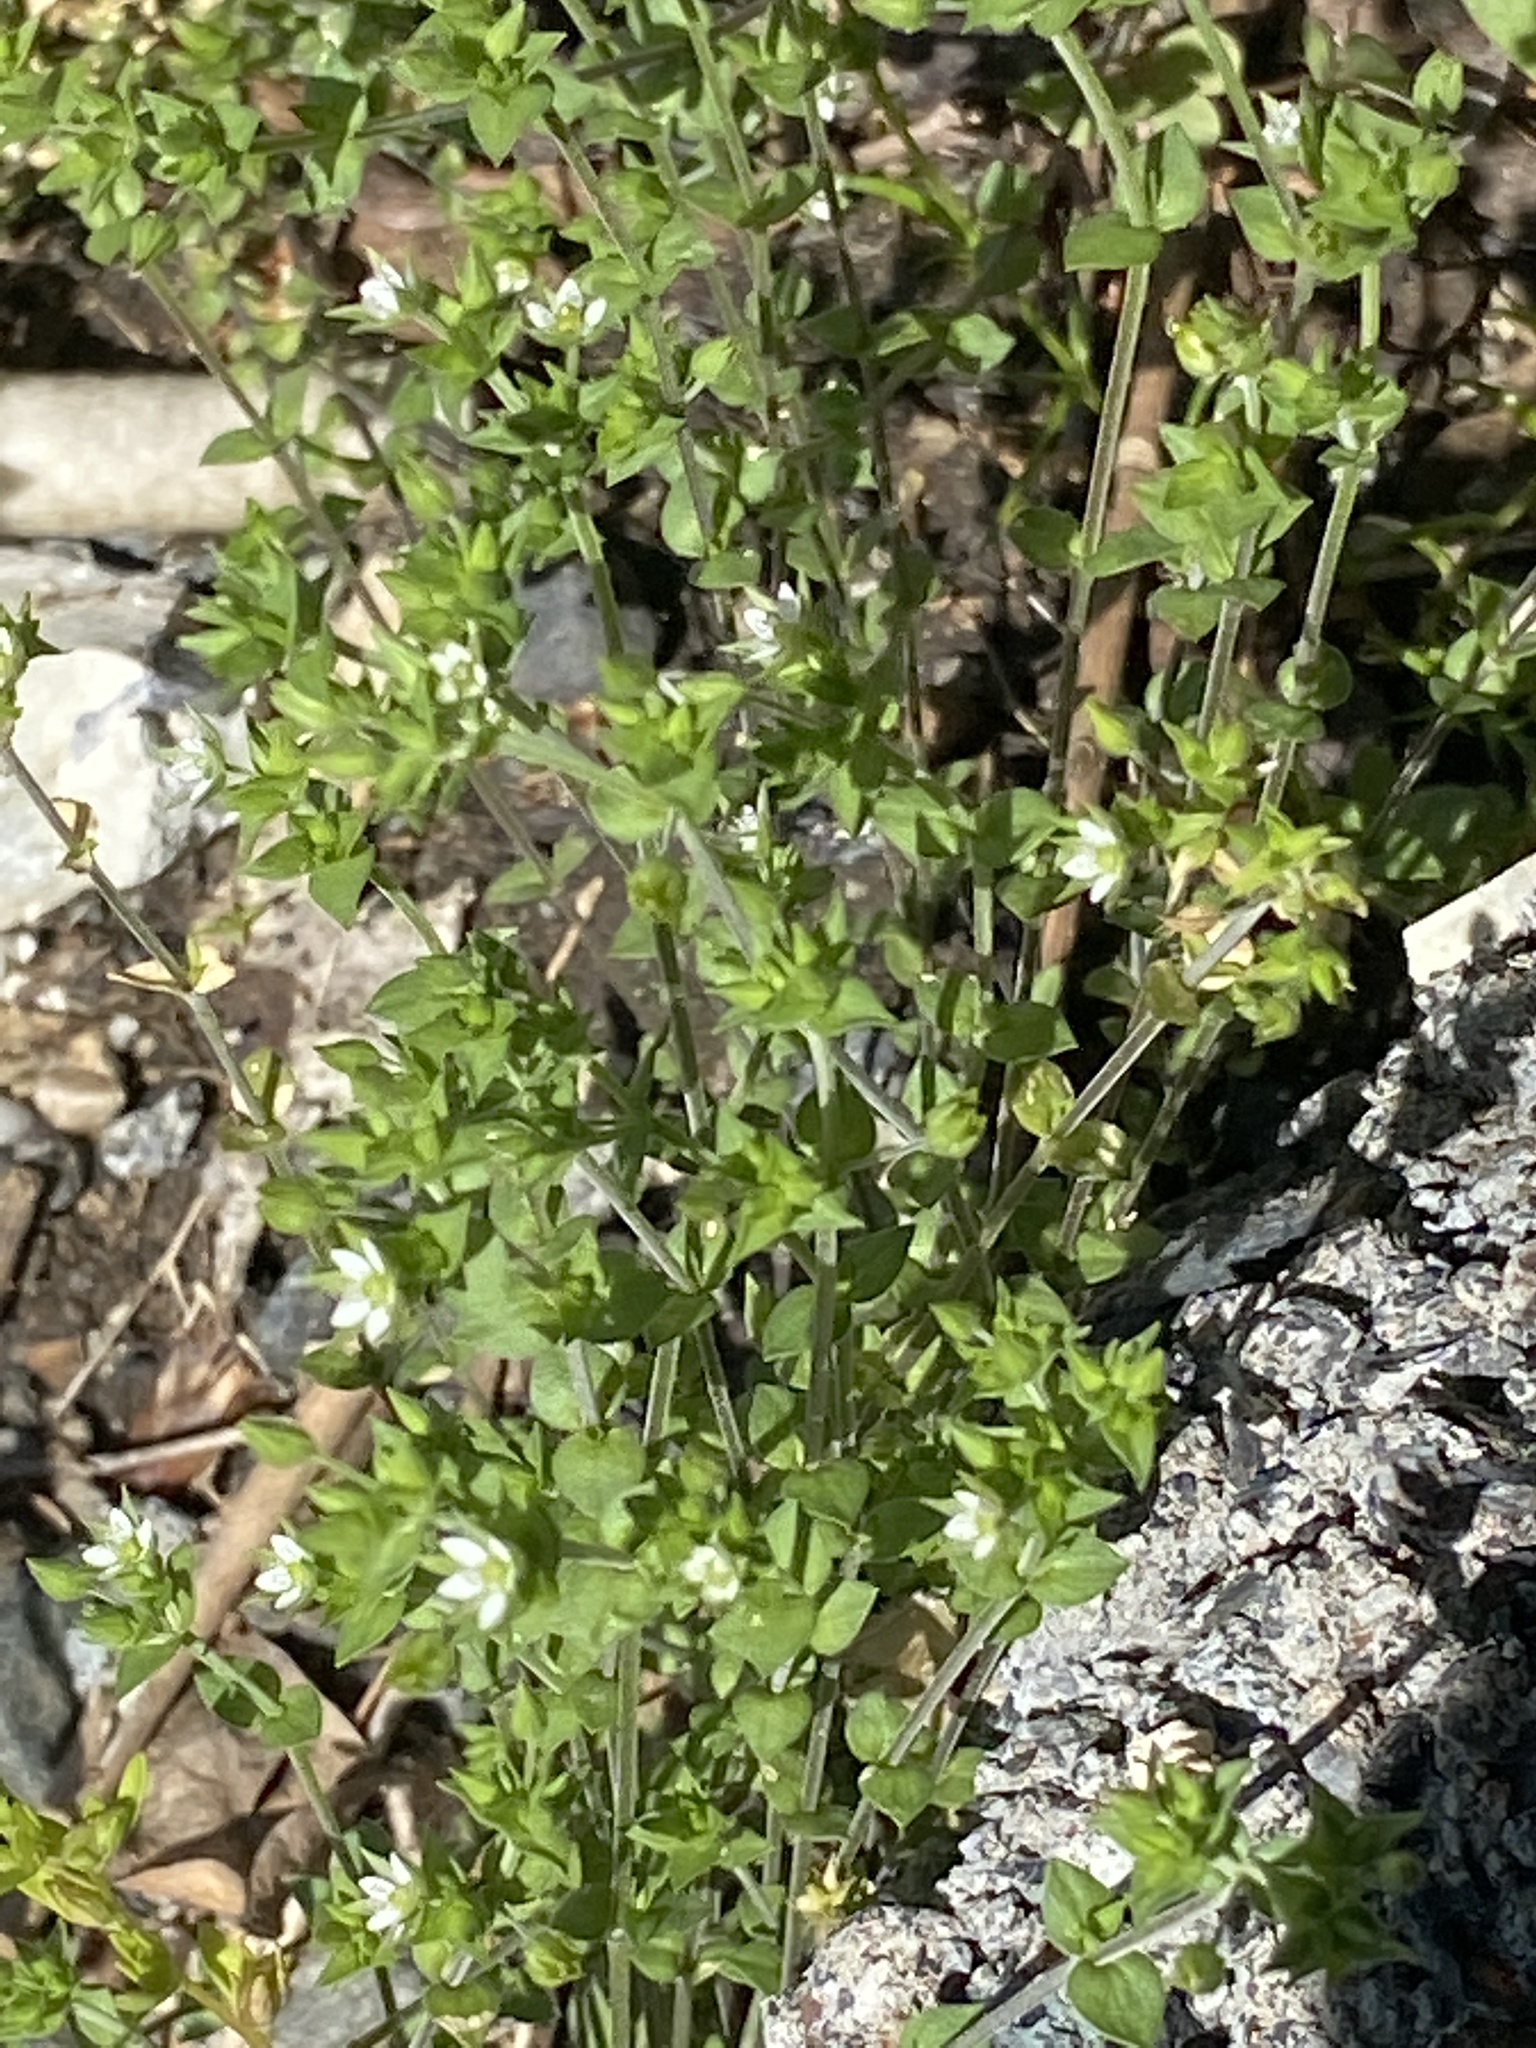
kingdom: Plantae
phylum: Tracheophyta
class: Magnoliopsida
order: Caryophyllales
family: Caryophyllaceae
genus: Arenaria
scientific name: Arenaria serpyllifolia
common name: Thyme-leaved sandwort
